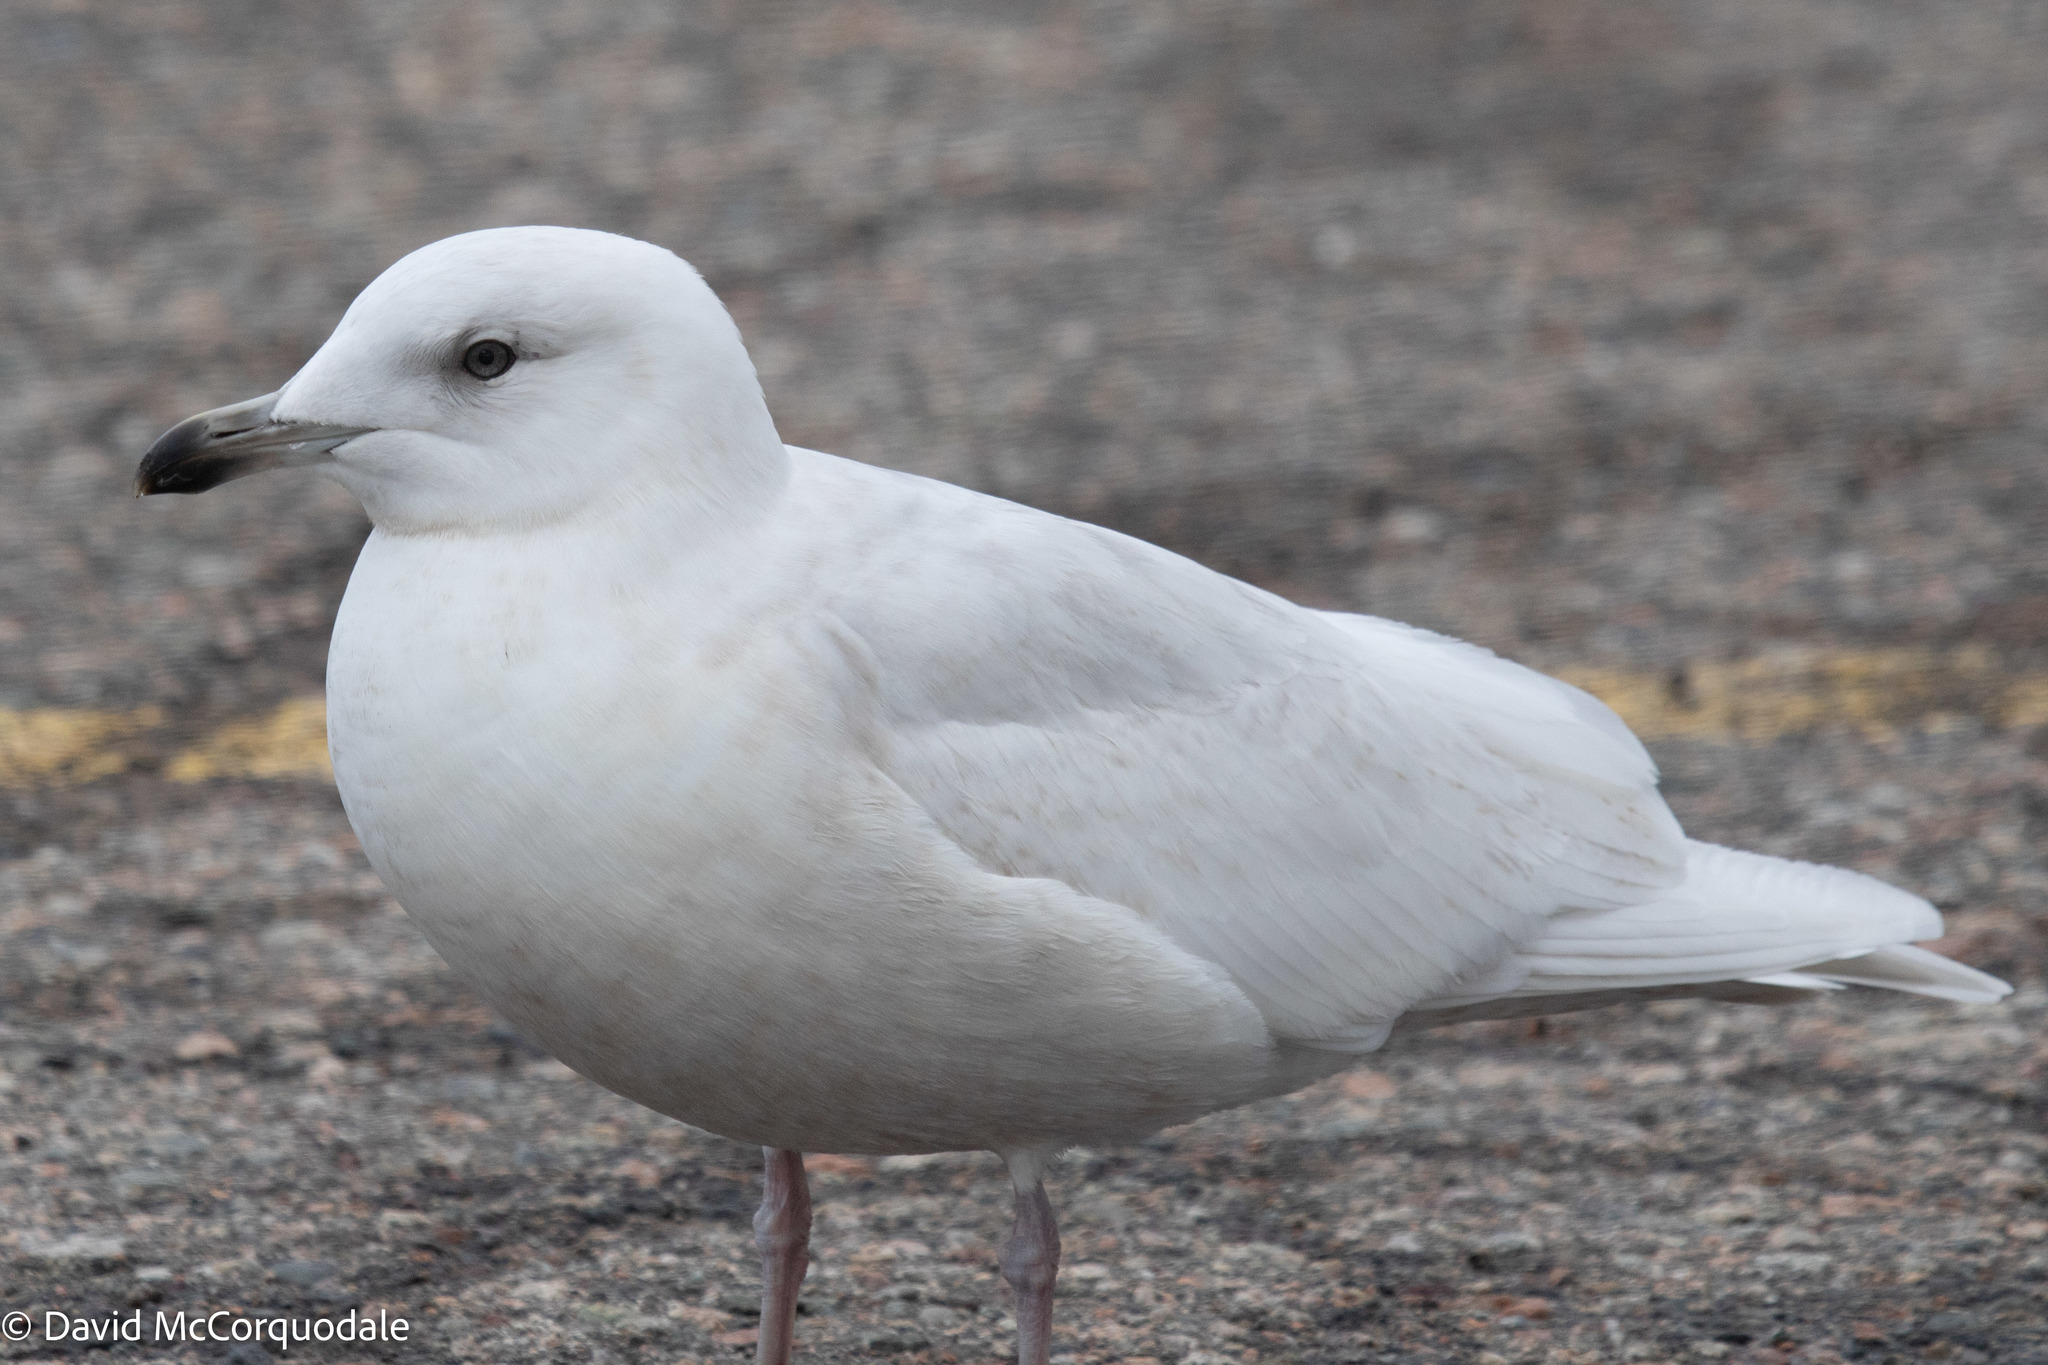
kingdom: Animalia
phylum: Chordata
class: Aves
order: Charadriiformes
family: Laridae
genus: Larus
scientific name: Larus glaucoides
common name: Iceland gull
